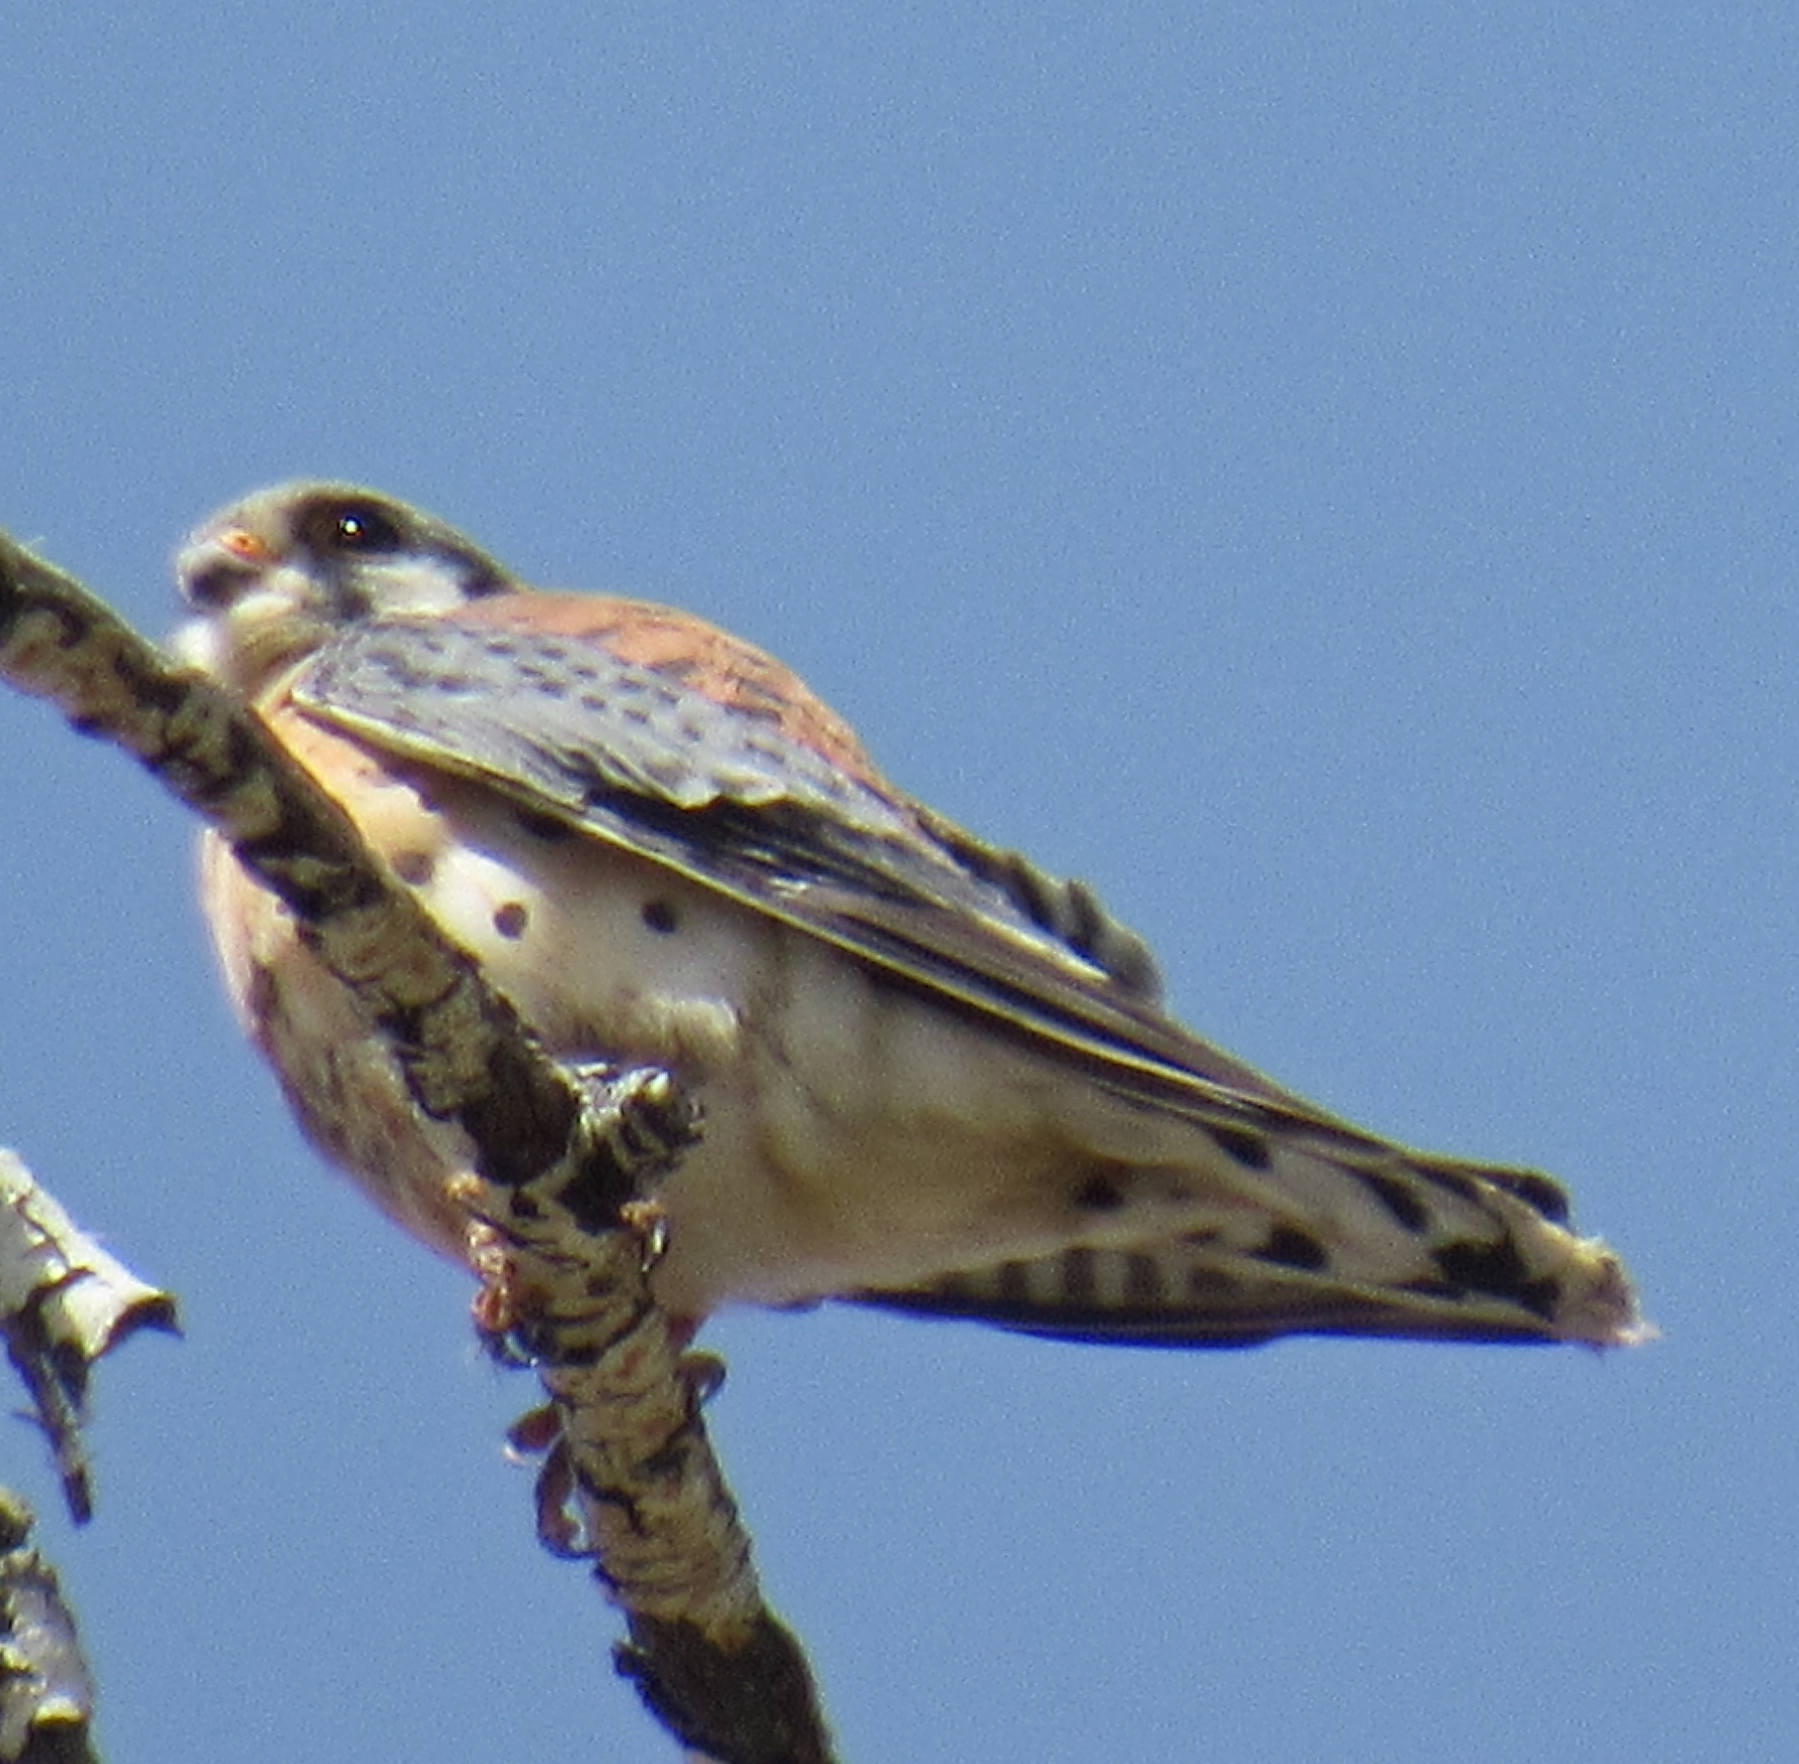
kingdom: Animalia
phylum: Chordata
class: Aves
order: Falconiformes
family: Falconidae
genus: Falco
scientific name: Falco sparverius
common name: American kestrel
